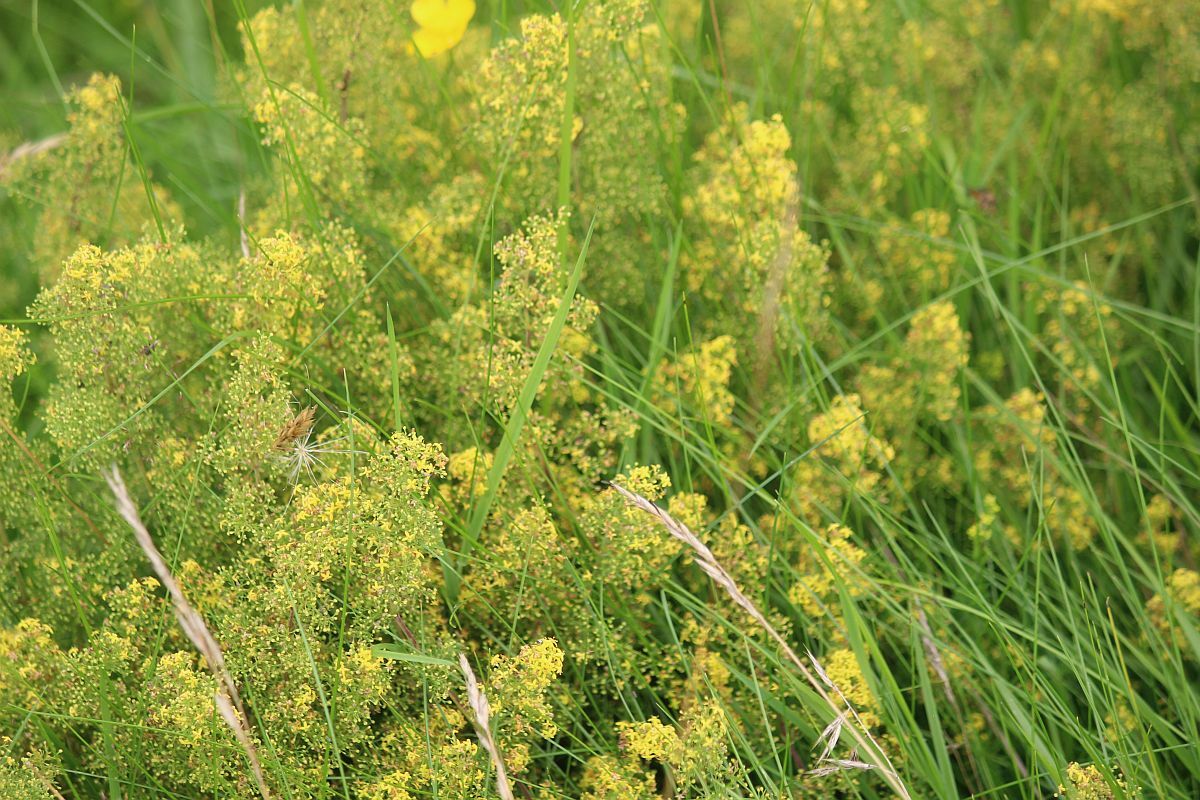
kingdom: Plantae
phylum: Tracheophyta
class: Magnoliopsida
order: Gentianales
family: Rubiaceae
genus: Galium
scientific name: Galium verum
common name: Lady's bedstraw
